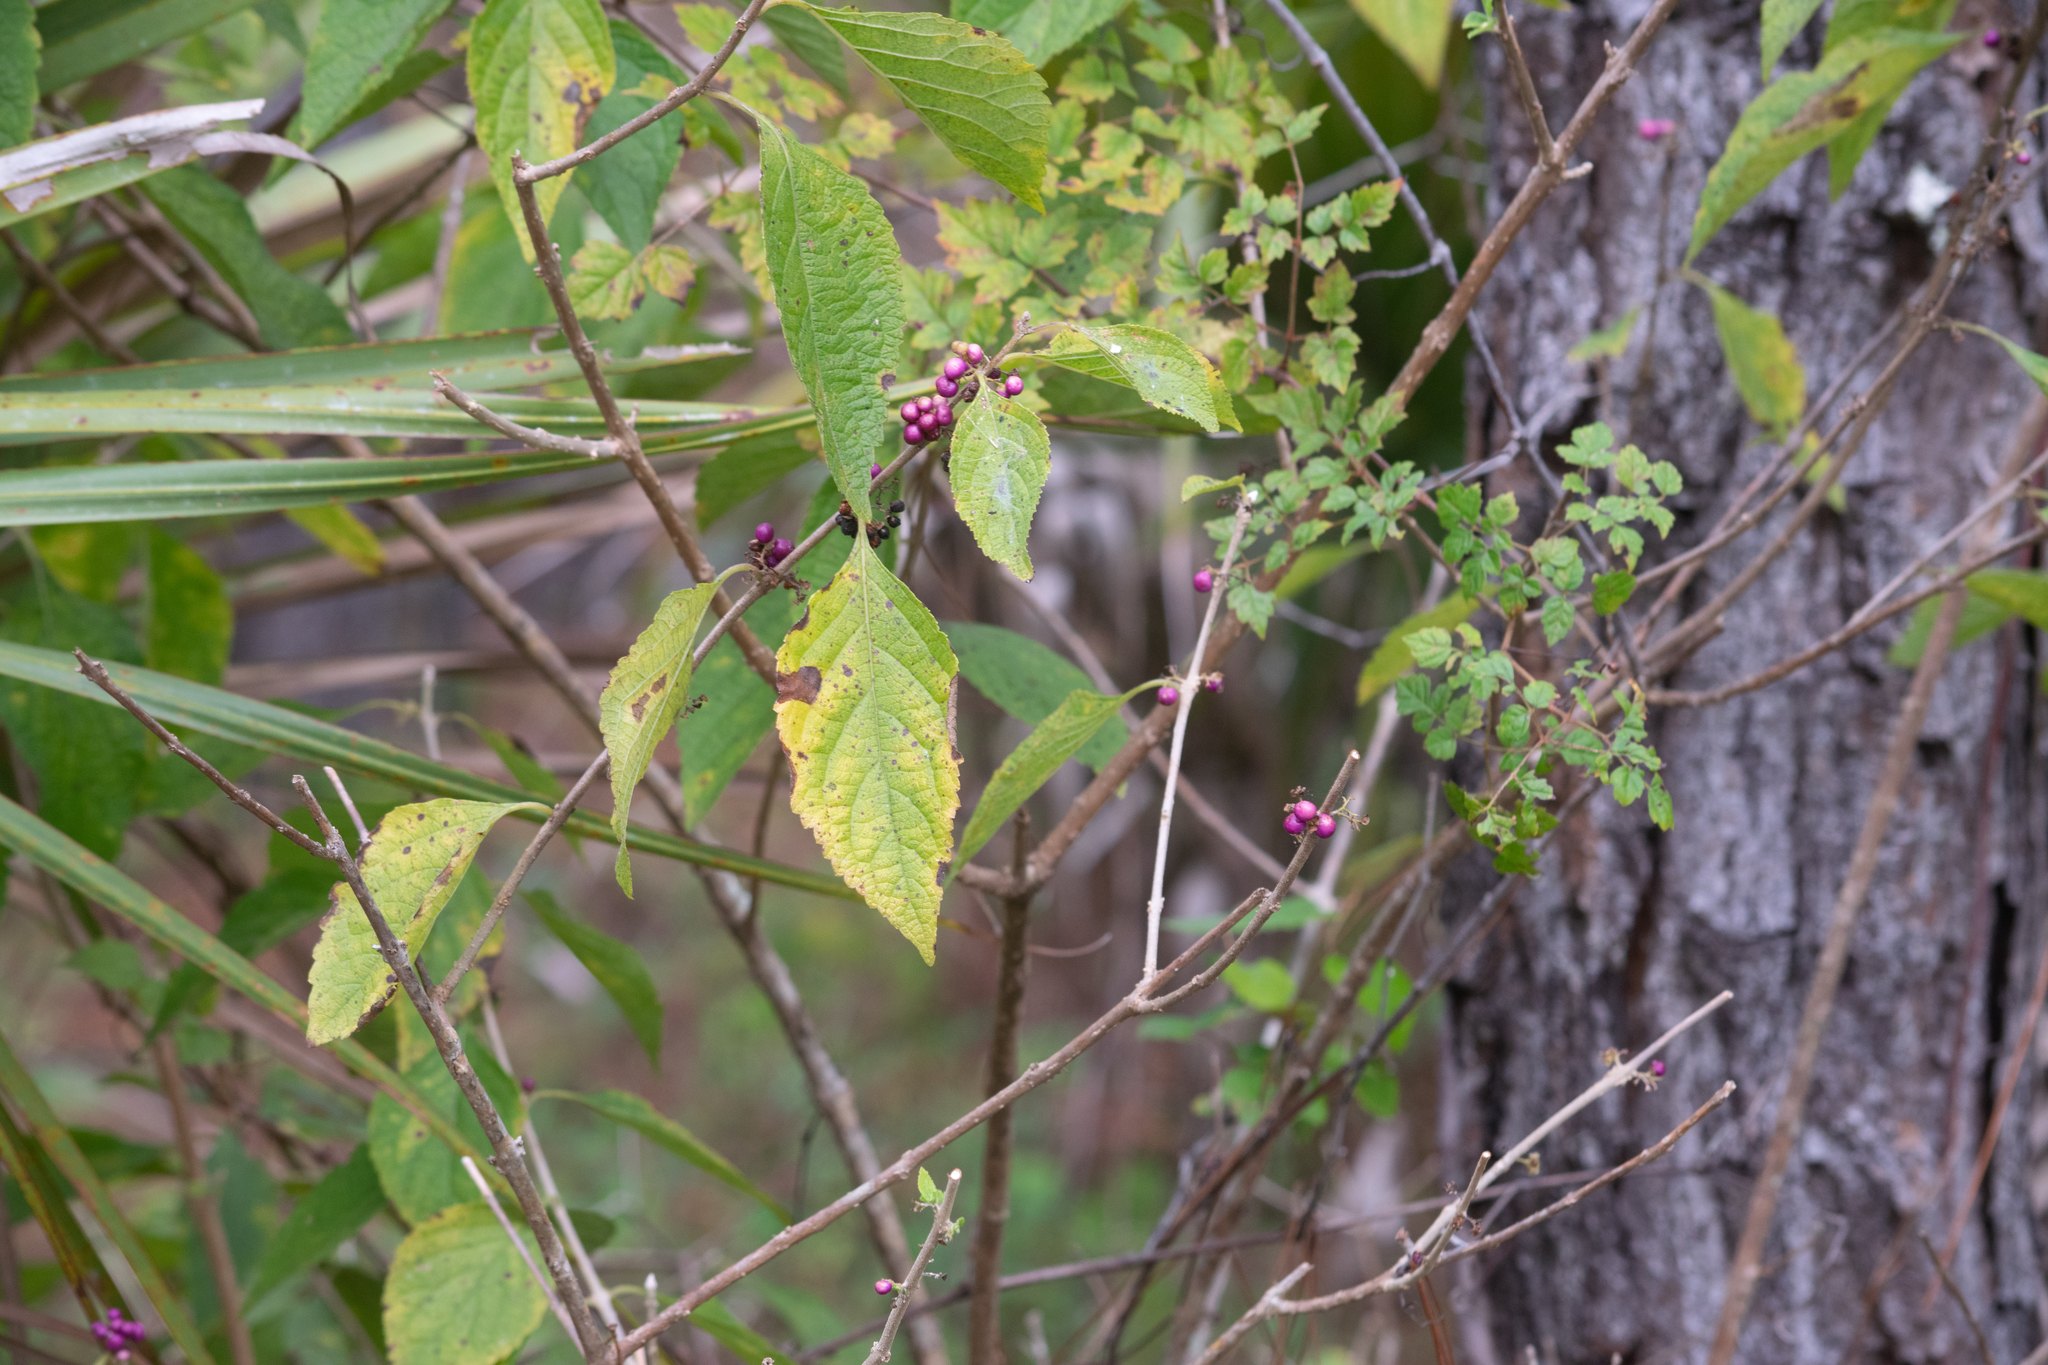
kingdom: Plantae
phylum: Tracheophyta
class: Magnoliopsida
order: Lamiales
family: Lamiaceae
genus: Callicarpa
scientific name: Callicarpa americana
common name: American beautyberry
